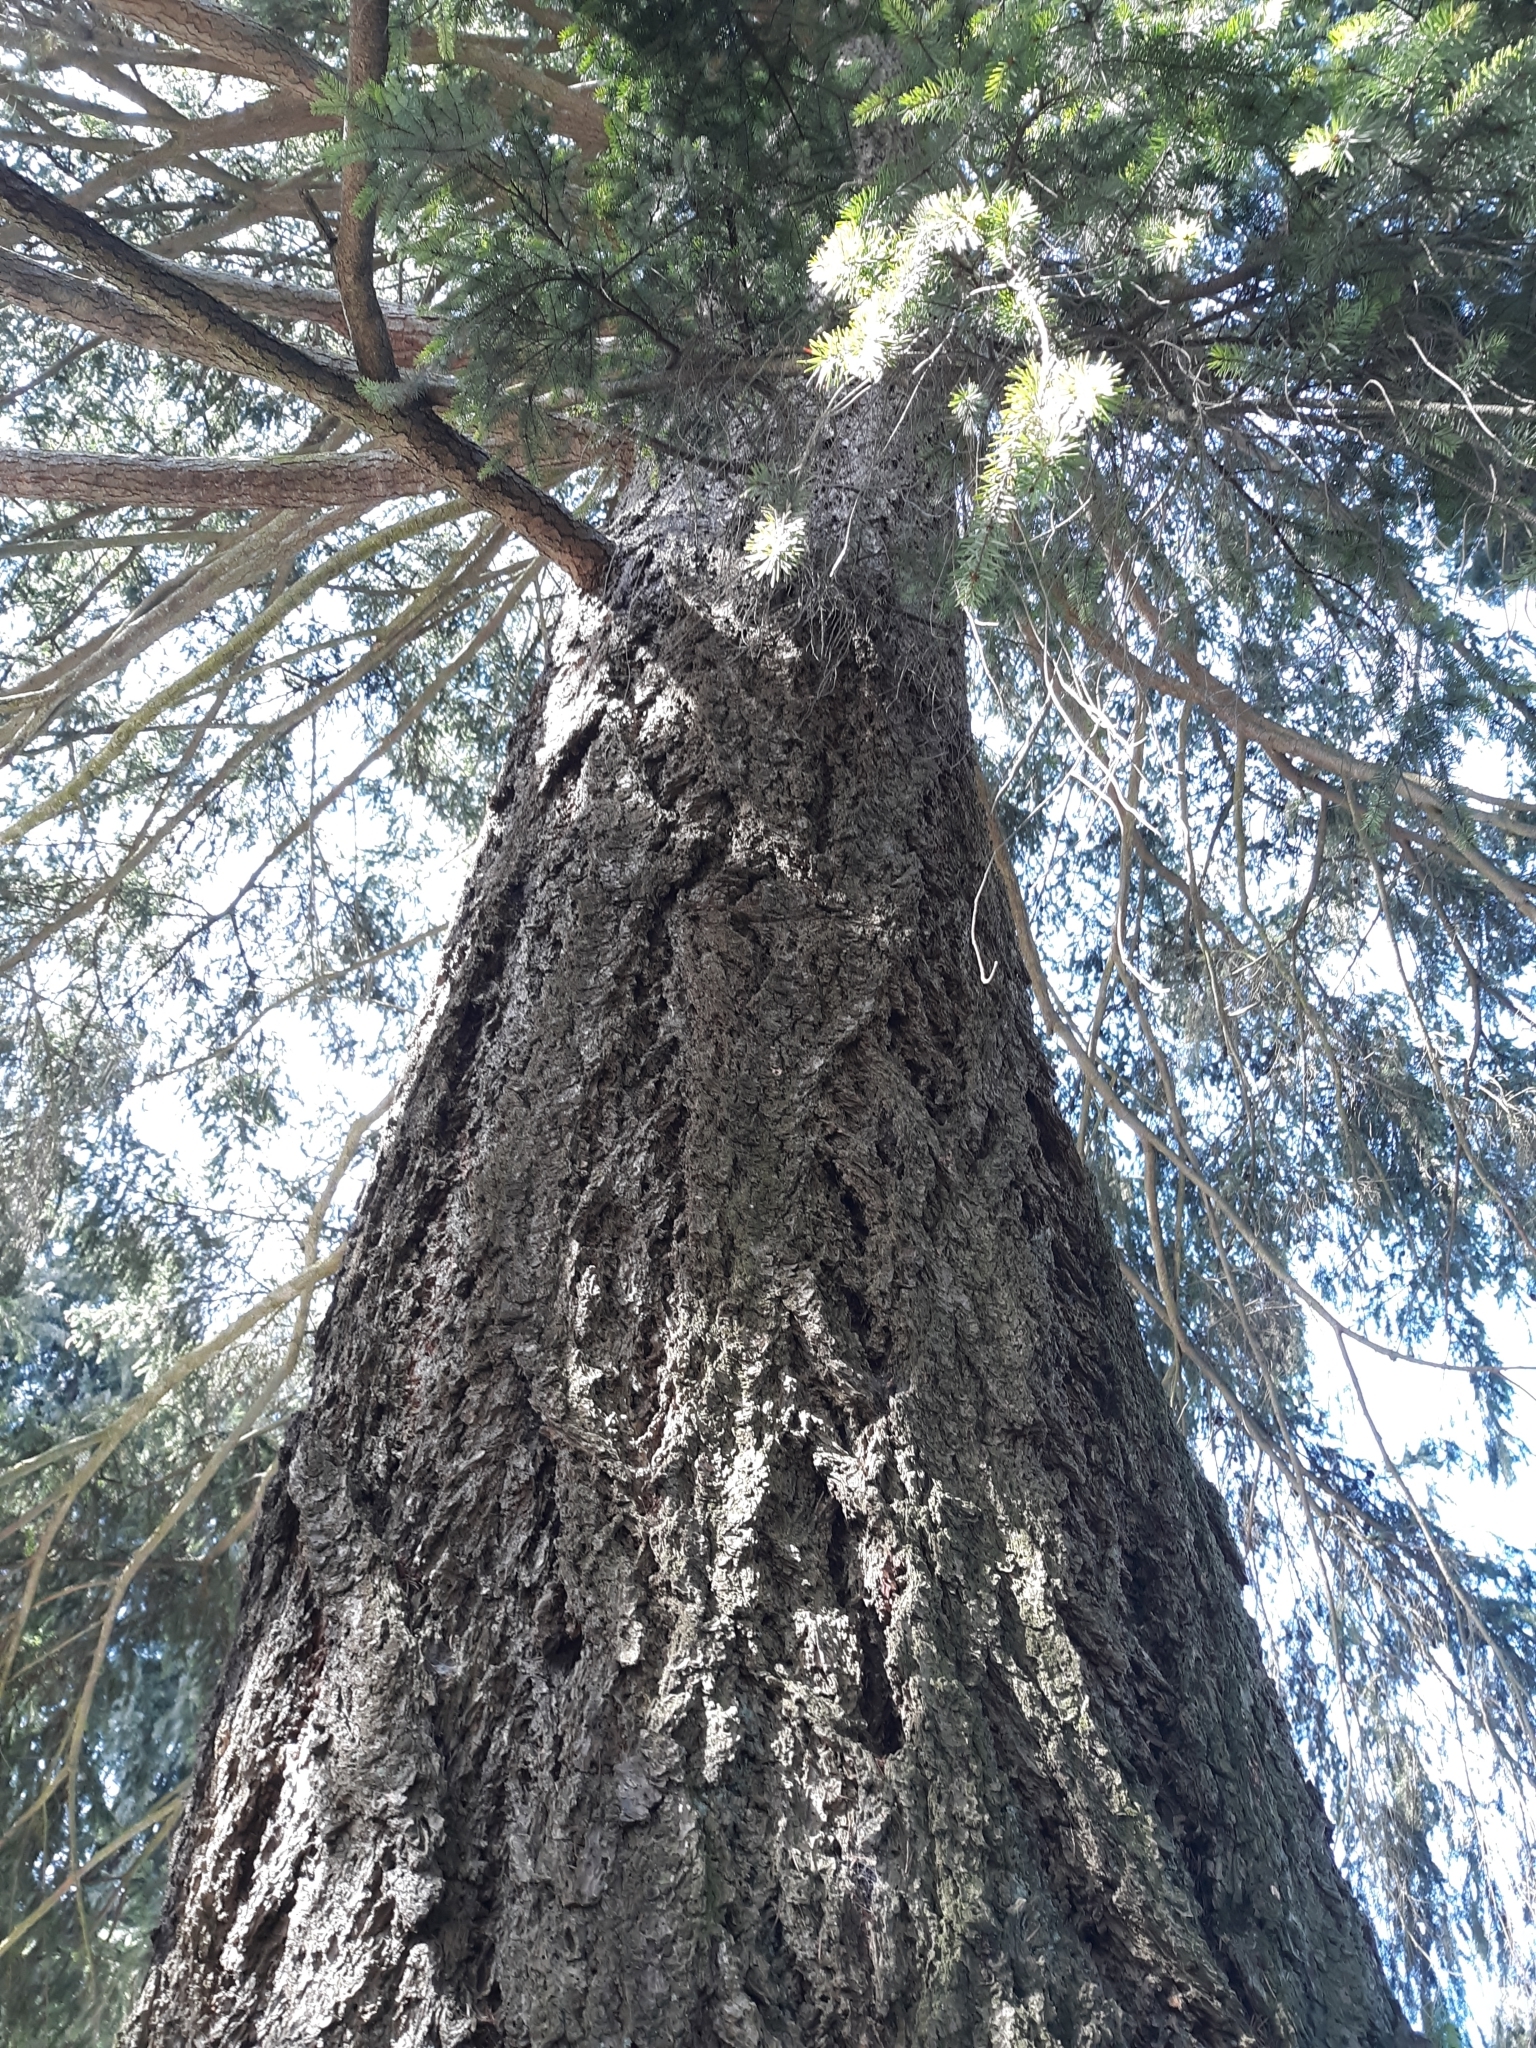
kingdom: Plantae
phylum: Tracheophyta
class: Pinopsida
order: Pinales
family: Pinaceae
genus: Pseudotsuga
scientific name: Pseudotsuga menziesii
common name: Douglas fir
